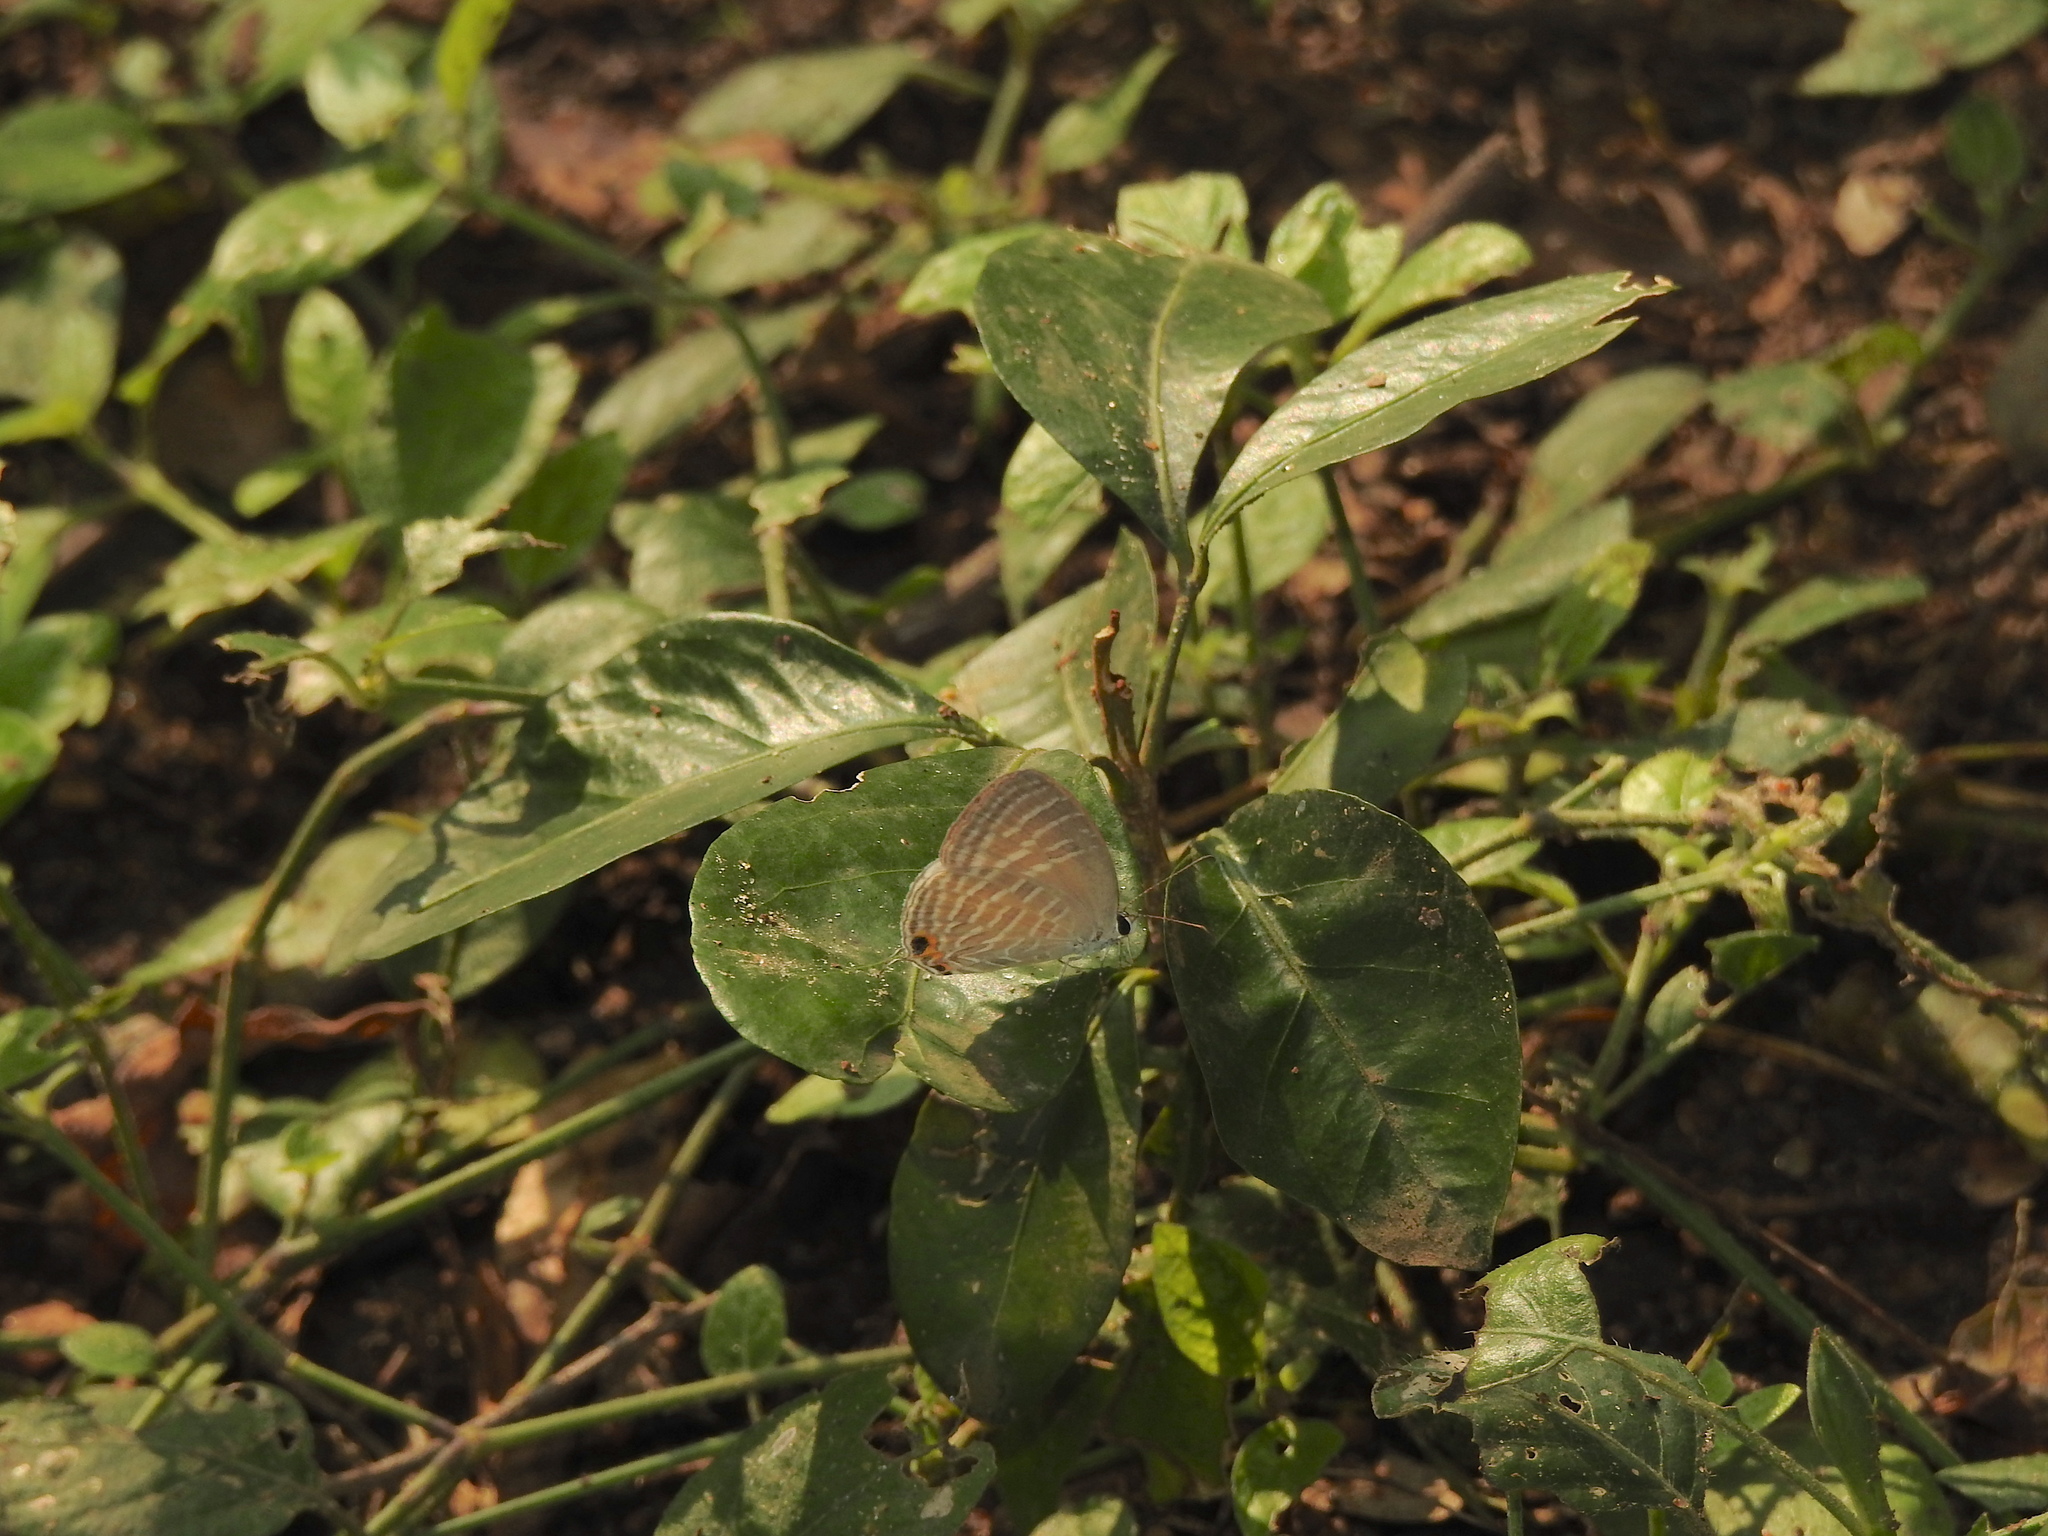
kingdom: Animalia
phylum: Arthropoda
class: Insecta
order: Lepidoptera
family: Lycaenidae
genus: Jamides
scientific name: Jamides celeno
